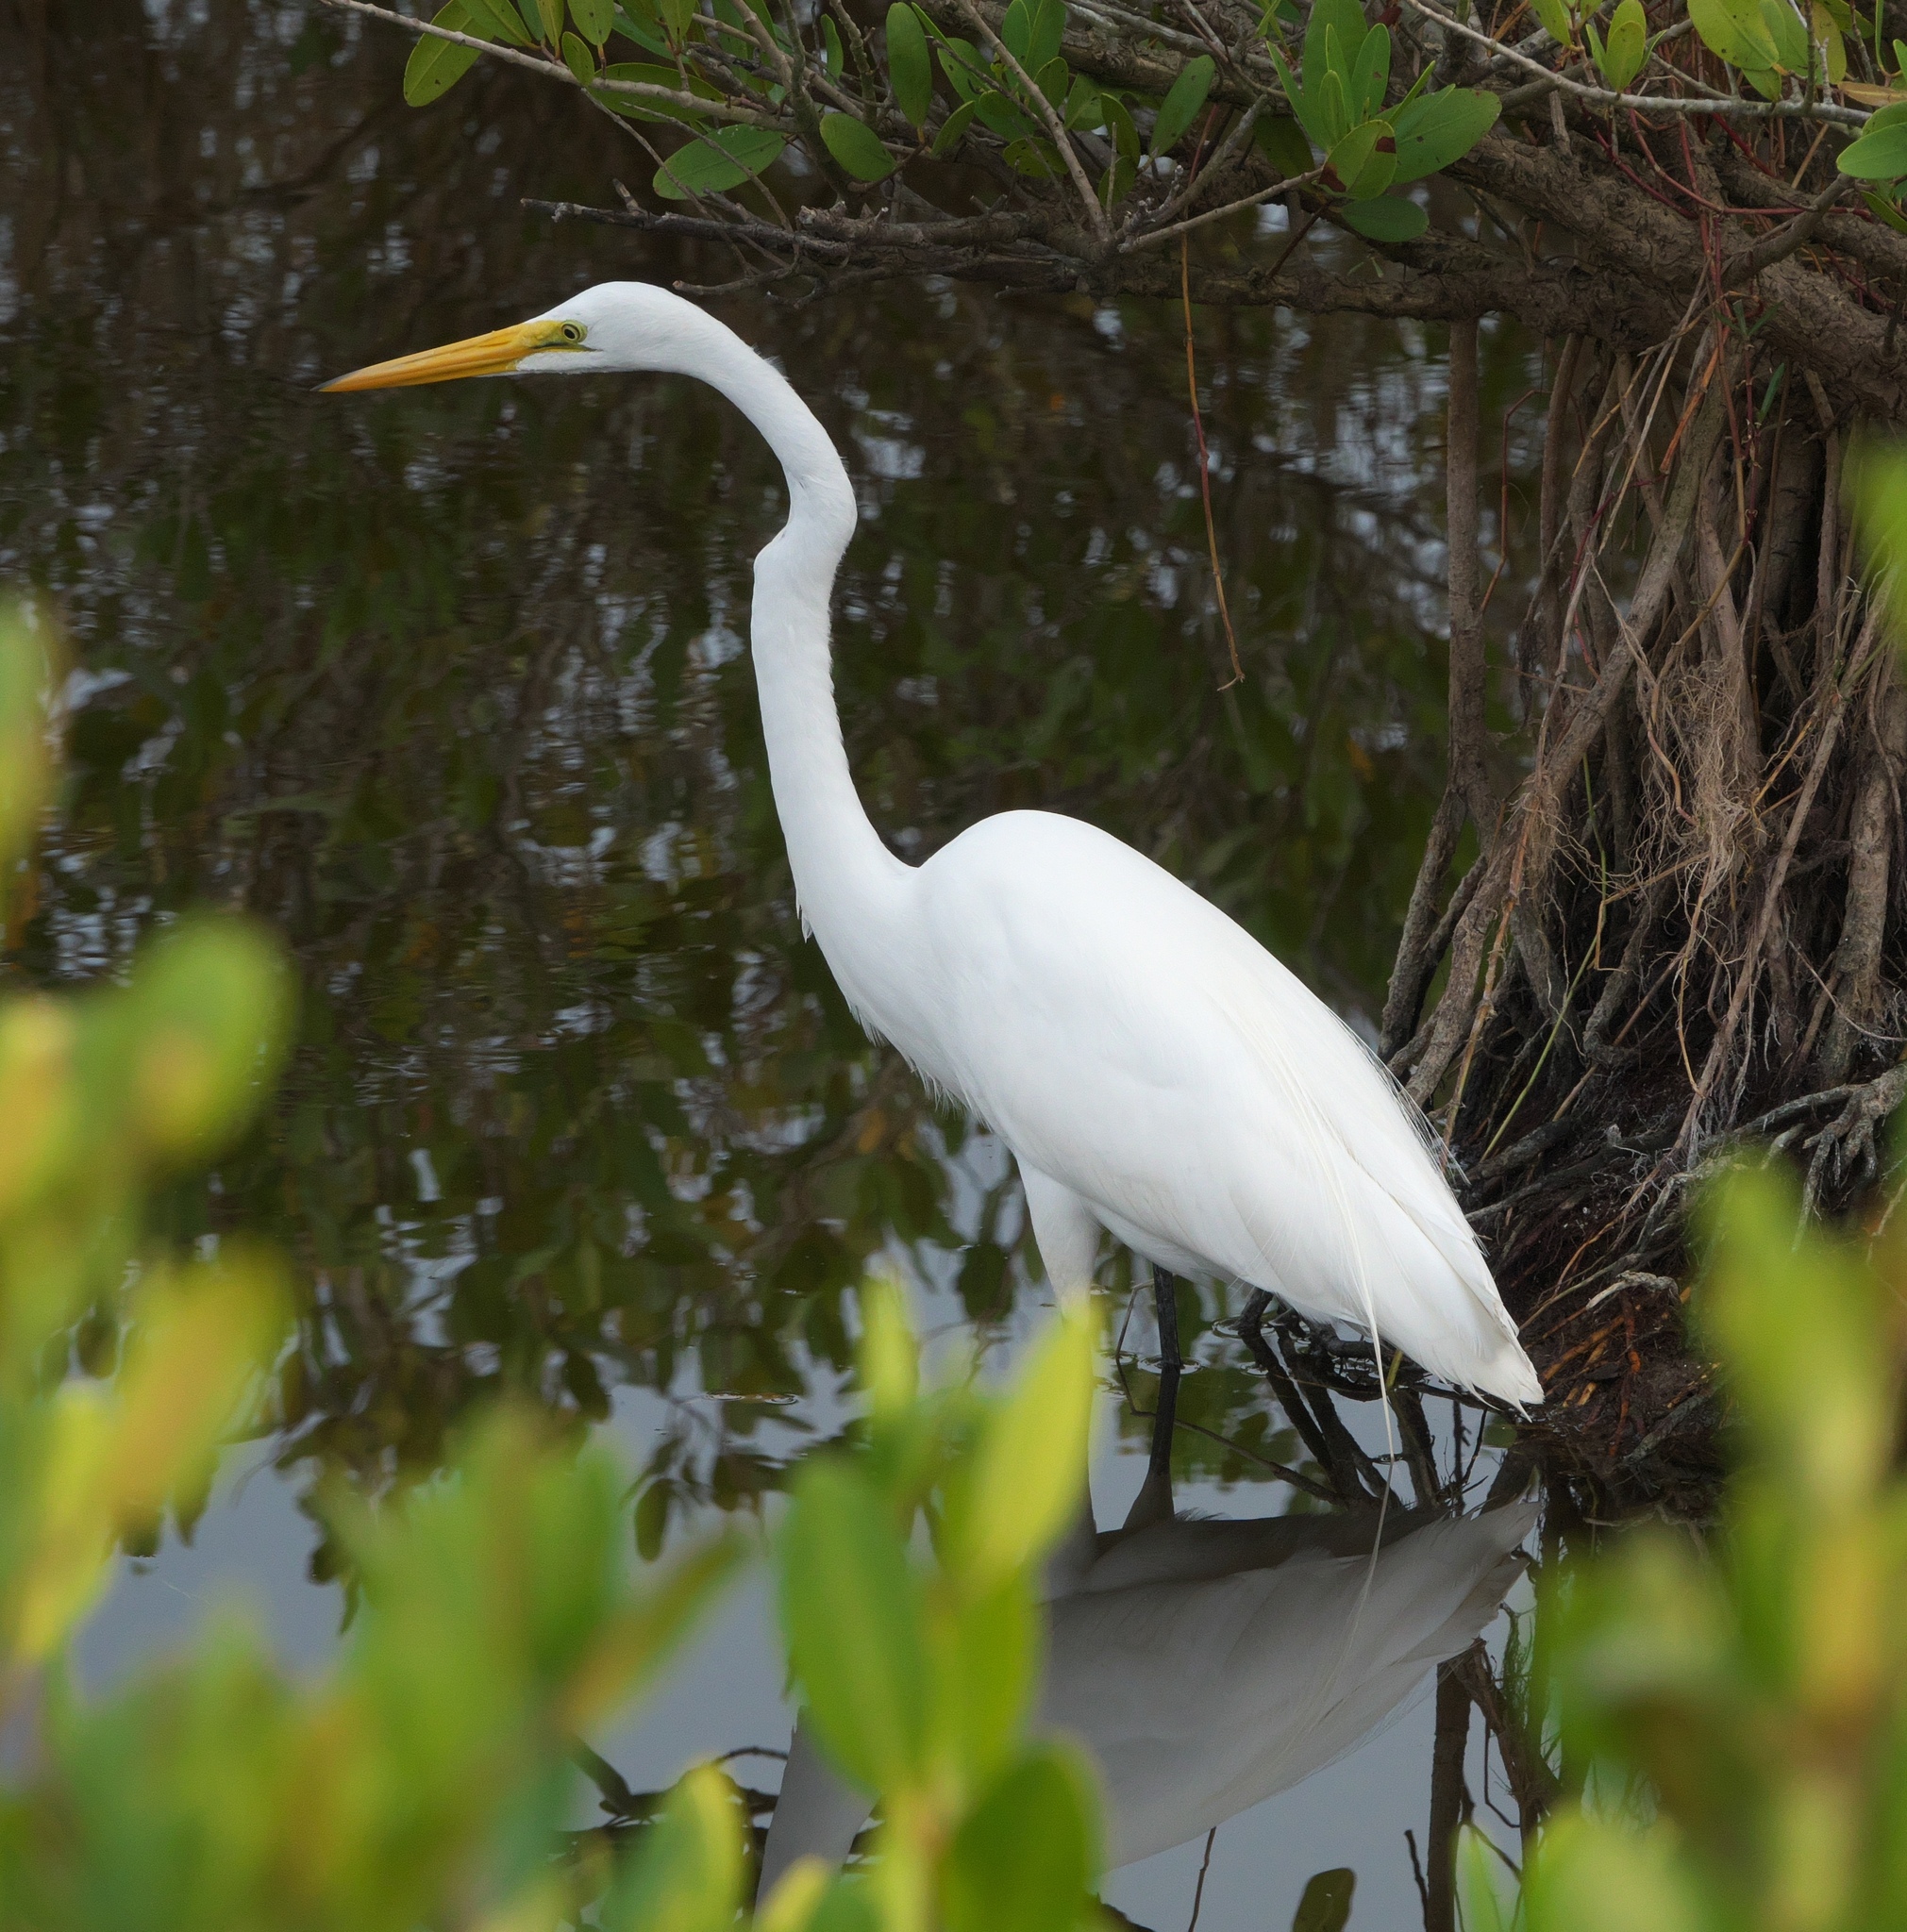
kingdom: Animalia
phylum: Chordata
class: Aves
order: Pelecaniformes
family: Ardeidae
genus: Ardea
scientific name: Ardea alba
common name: Great egret
